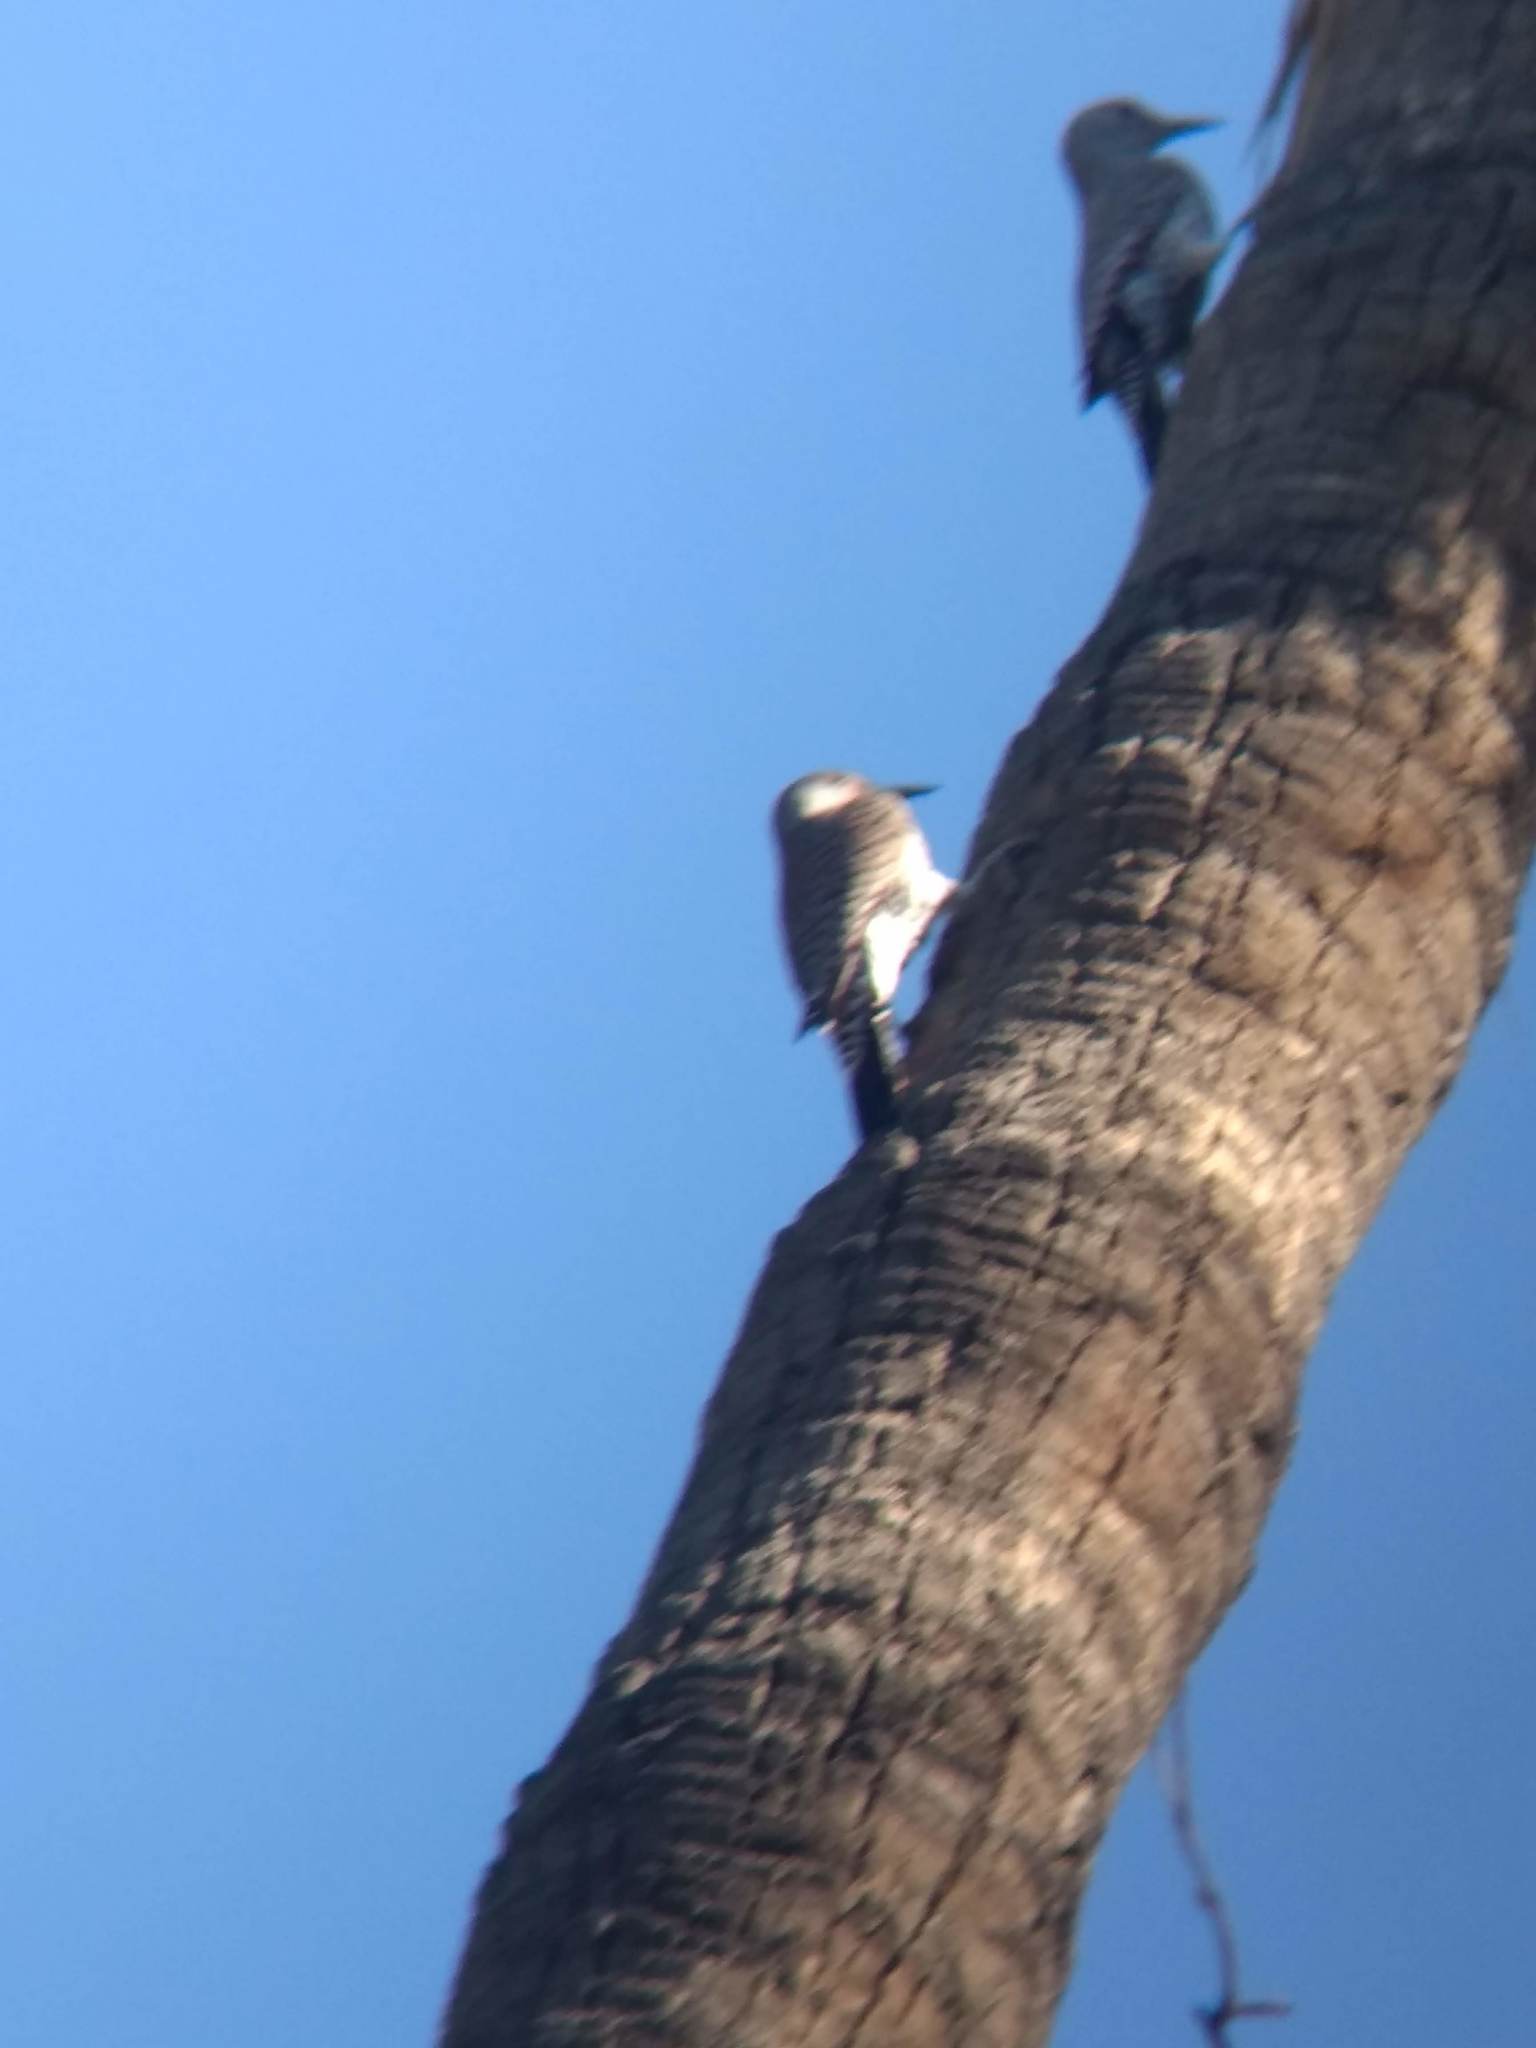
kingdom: Animalia
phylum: Chordata
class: Aves
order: Piciformes
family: Picidae
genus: Colaptes
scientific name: Colaptes auratus
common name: Northern flicker
